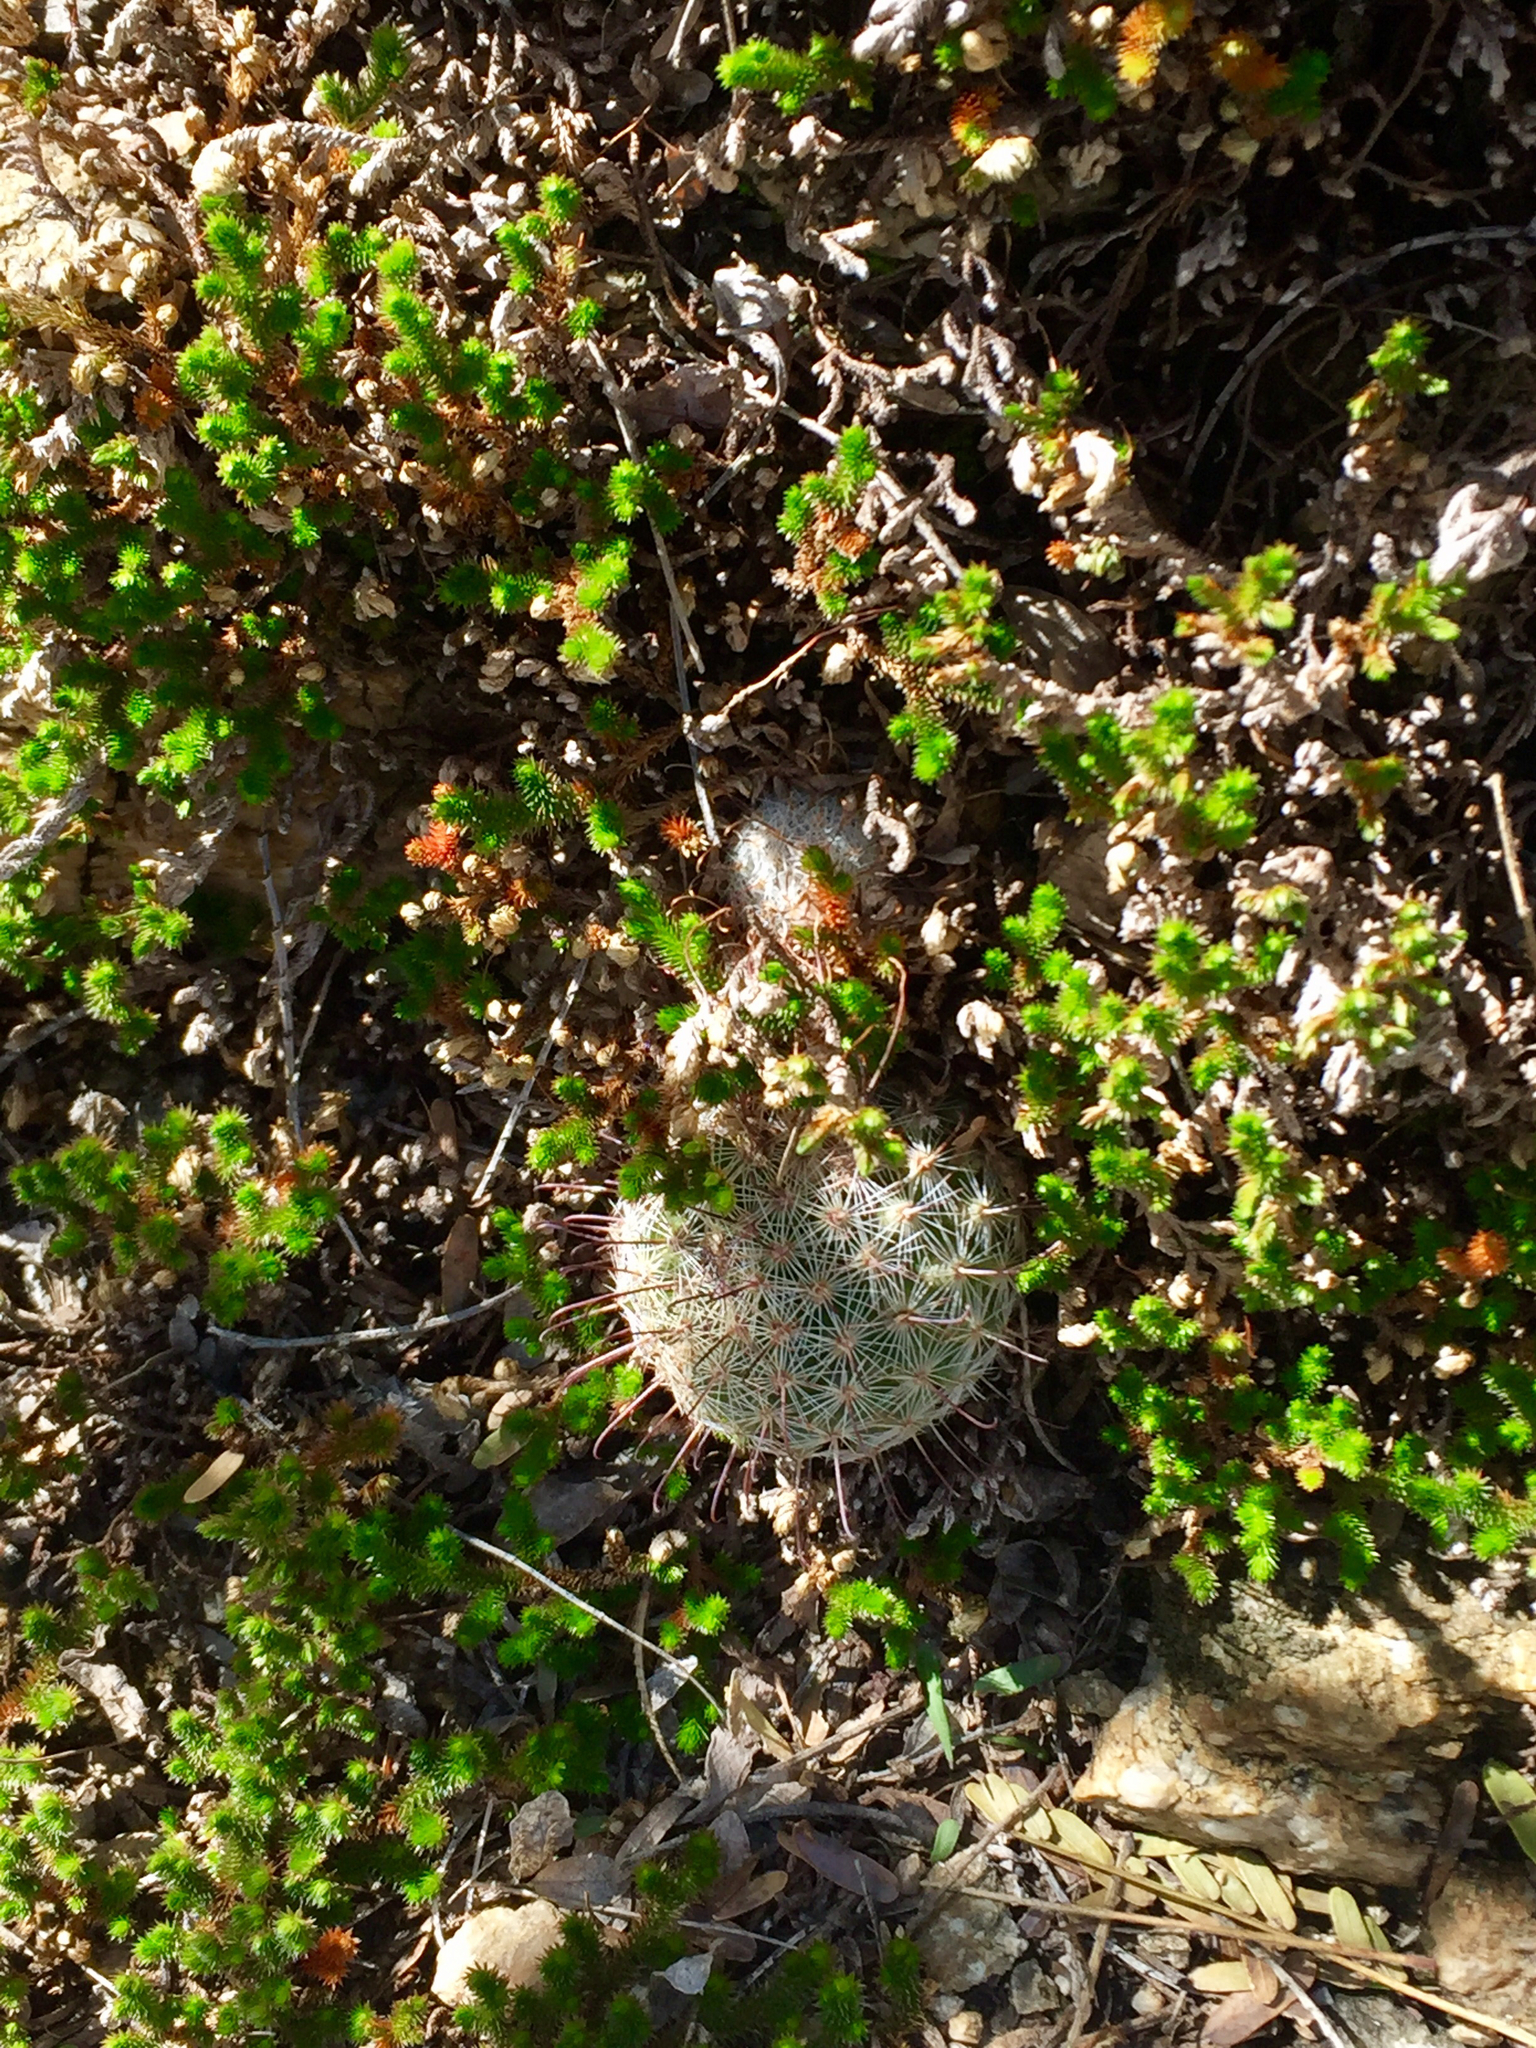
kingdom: Plantae
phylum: Tracheophyta
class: Magnoliopsida
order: Caryophyllales
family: Cactaceae
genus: Cochemiea
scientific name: Cochemiea grahamii
